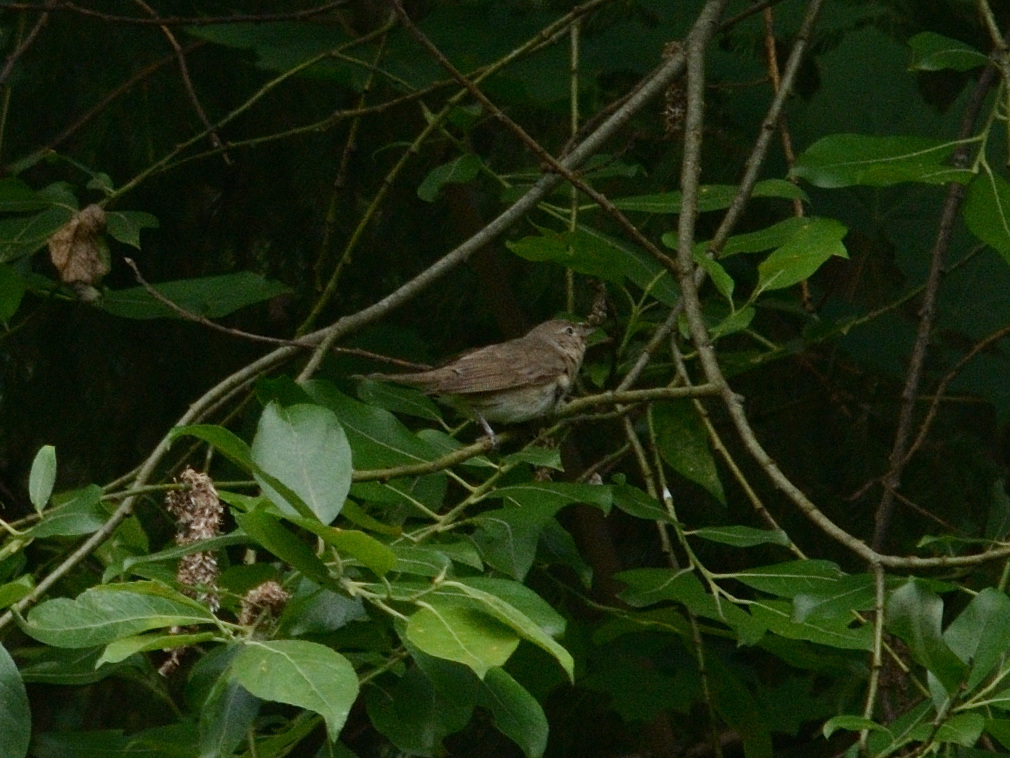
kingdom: Animalia
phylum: Chordata
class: Aves
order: Passeriformes
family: Sylviidae
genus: Sylvia
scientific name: Sylvia borin
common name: Garden warbler
